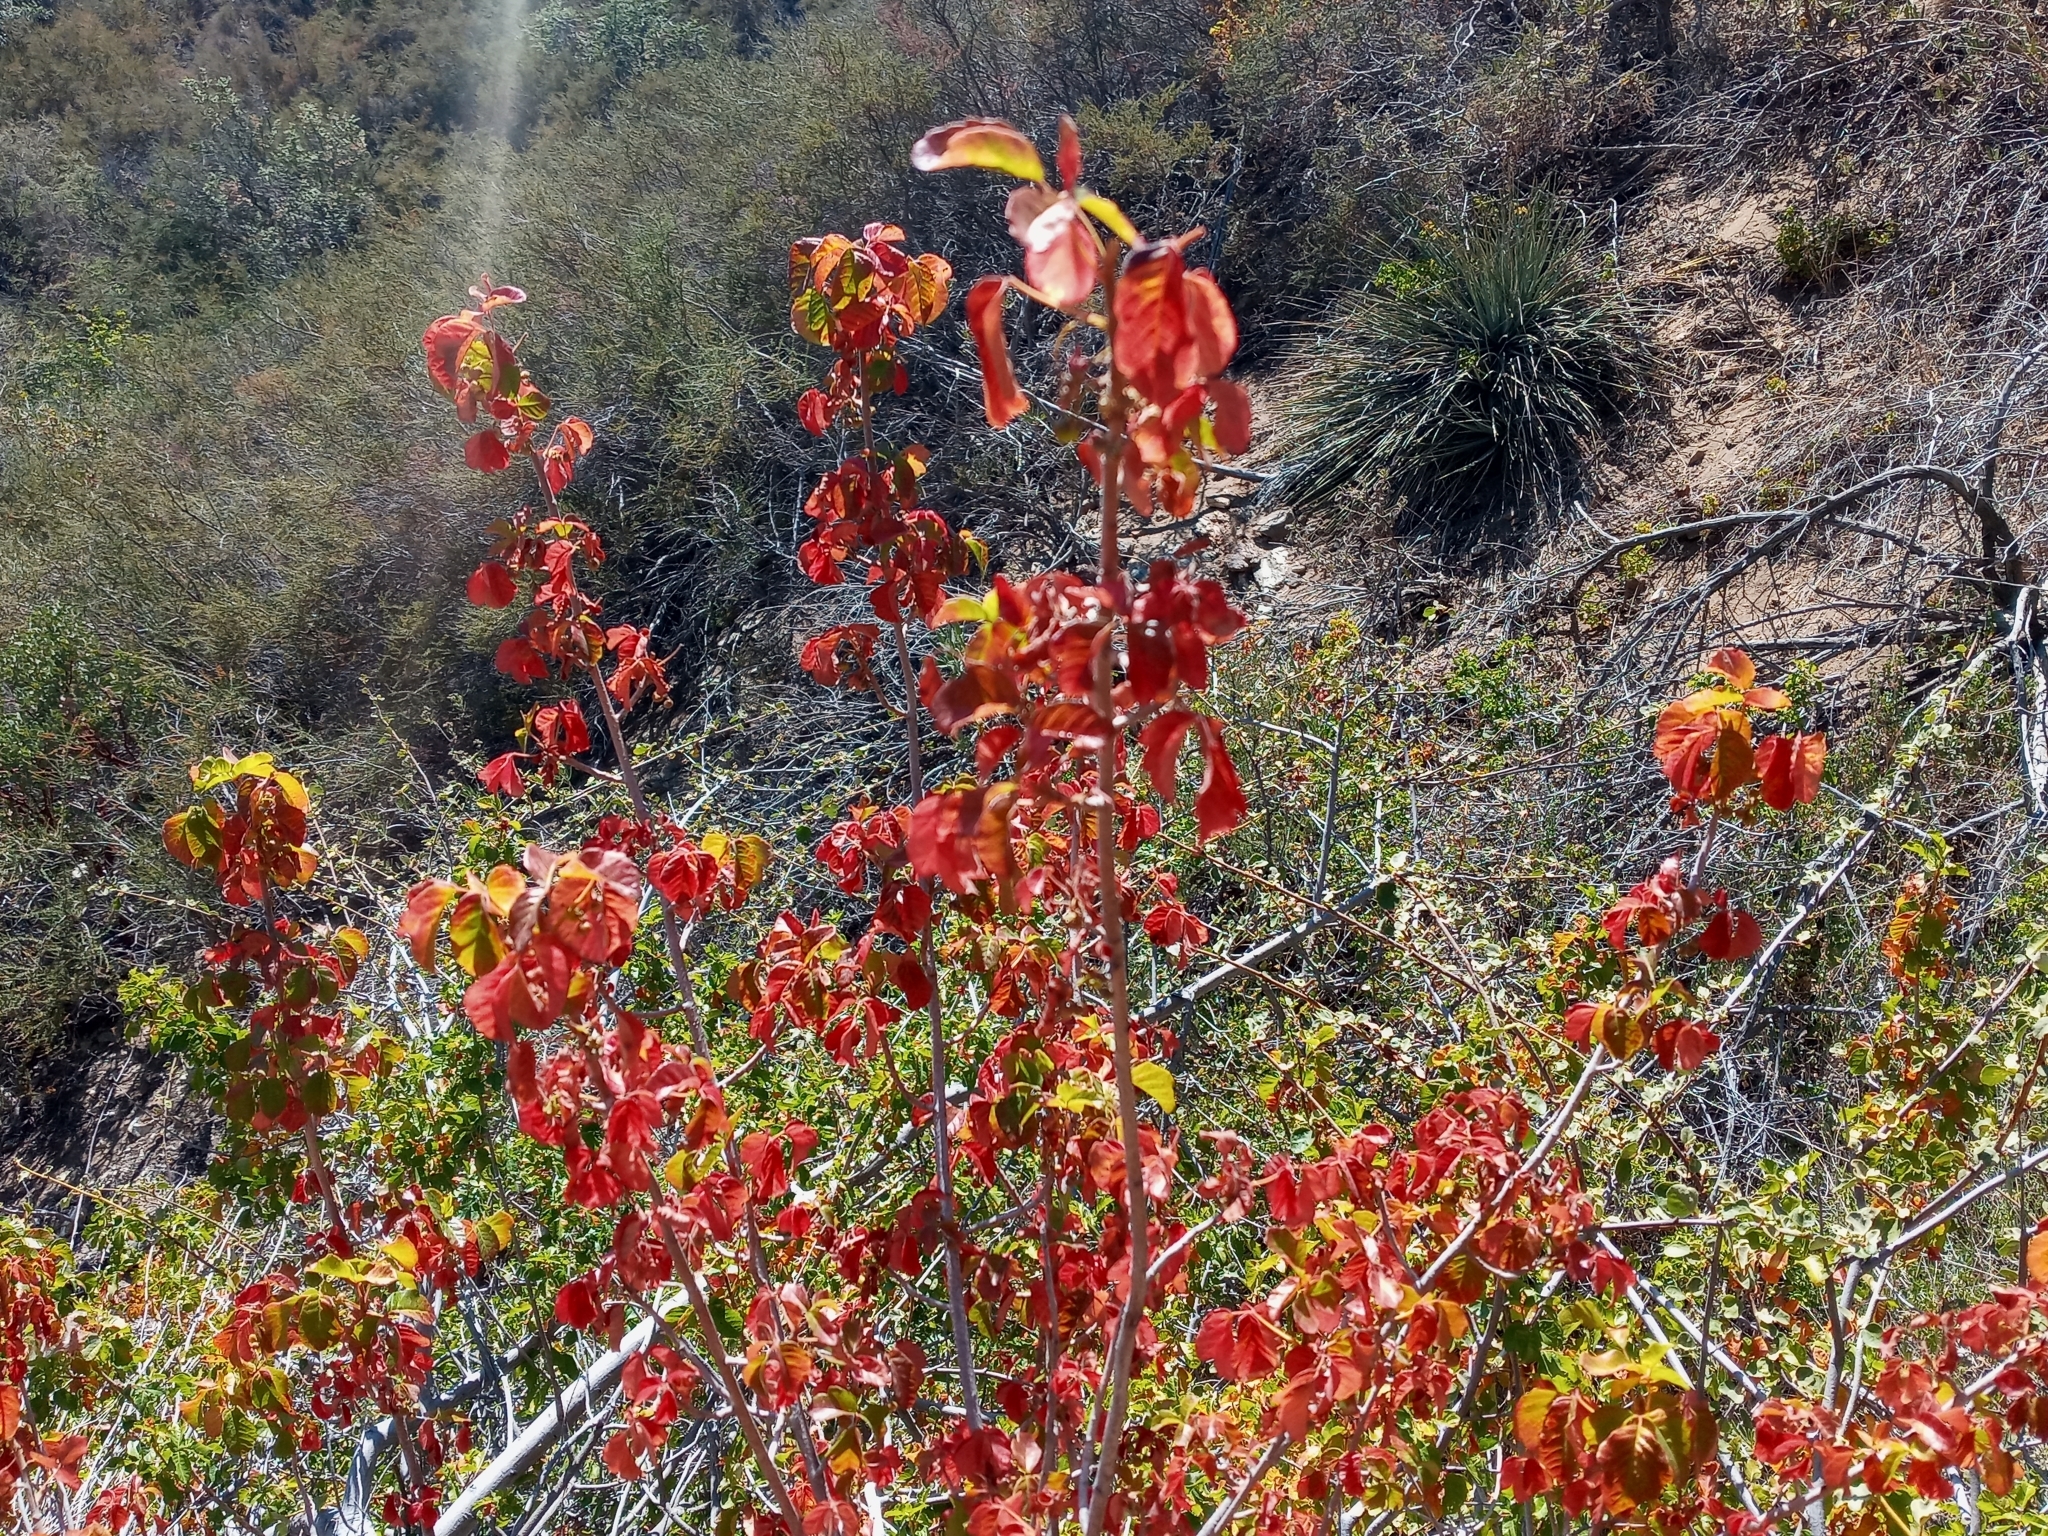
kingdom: Plantae
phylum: Tracheophyta
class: Magnoliopsida
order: Sapindales
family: Anacardiaceae
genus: Toxicodendron
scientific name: Toxicodendron diversilobum
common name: Pacific poison-oak
